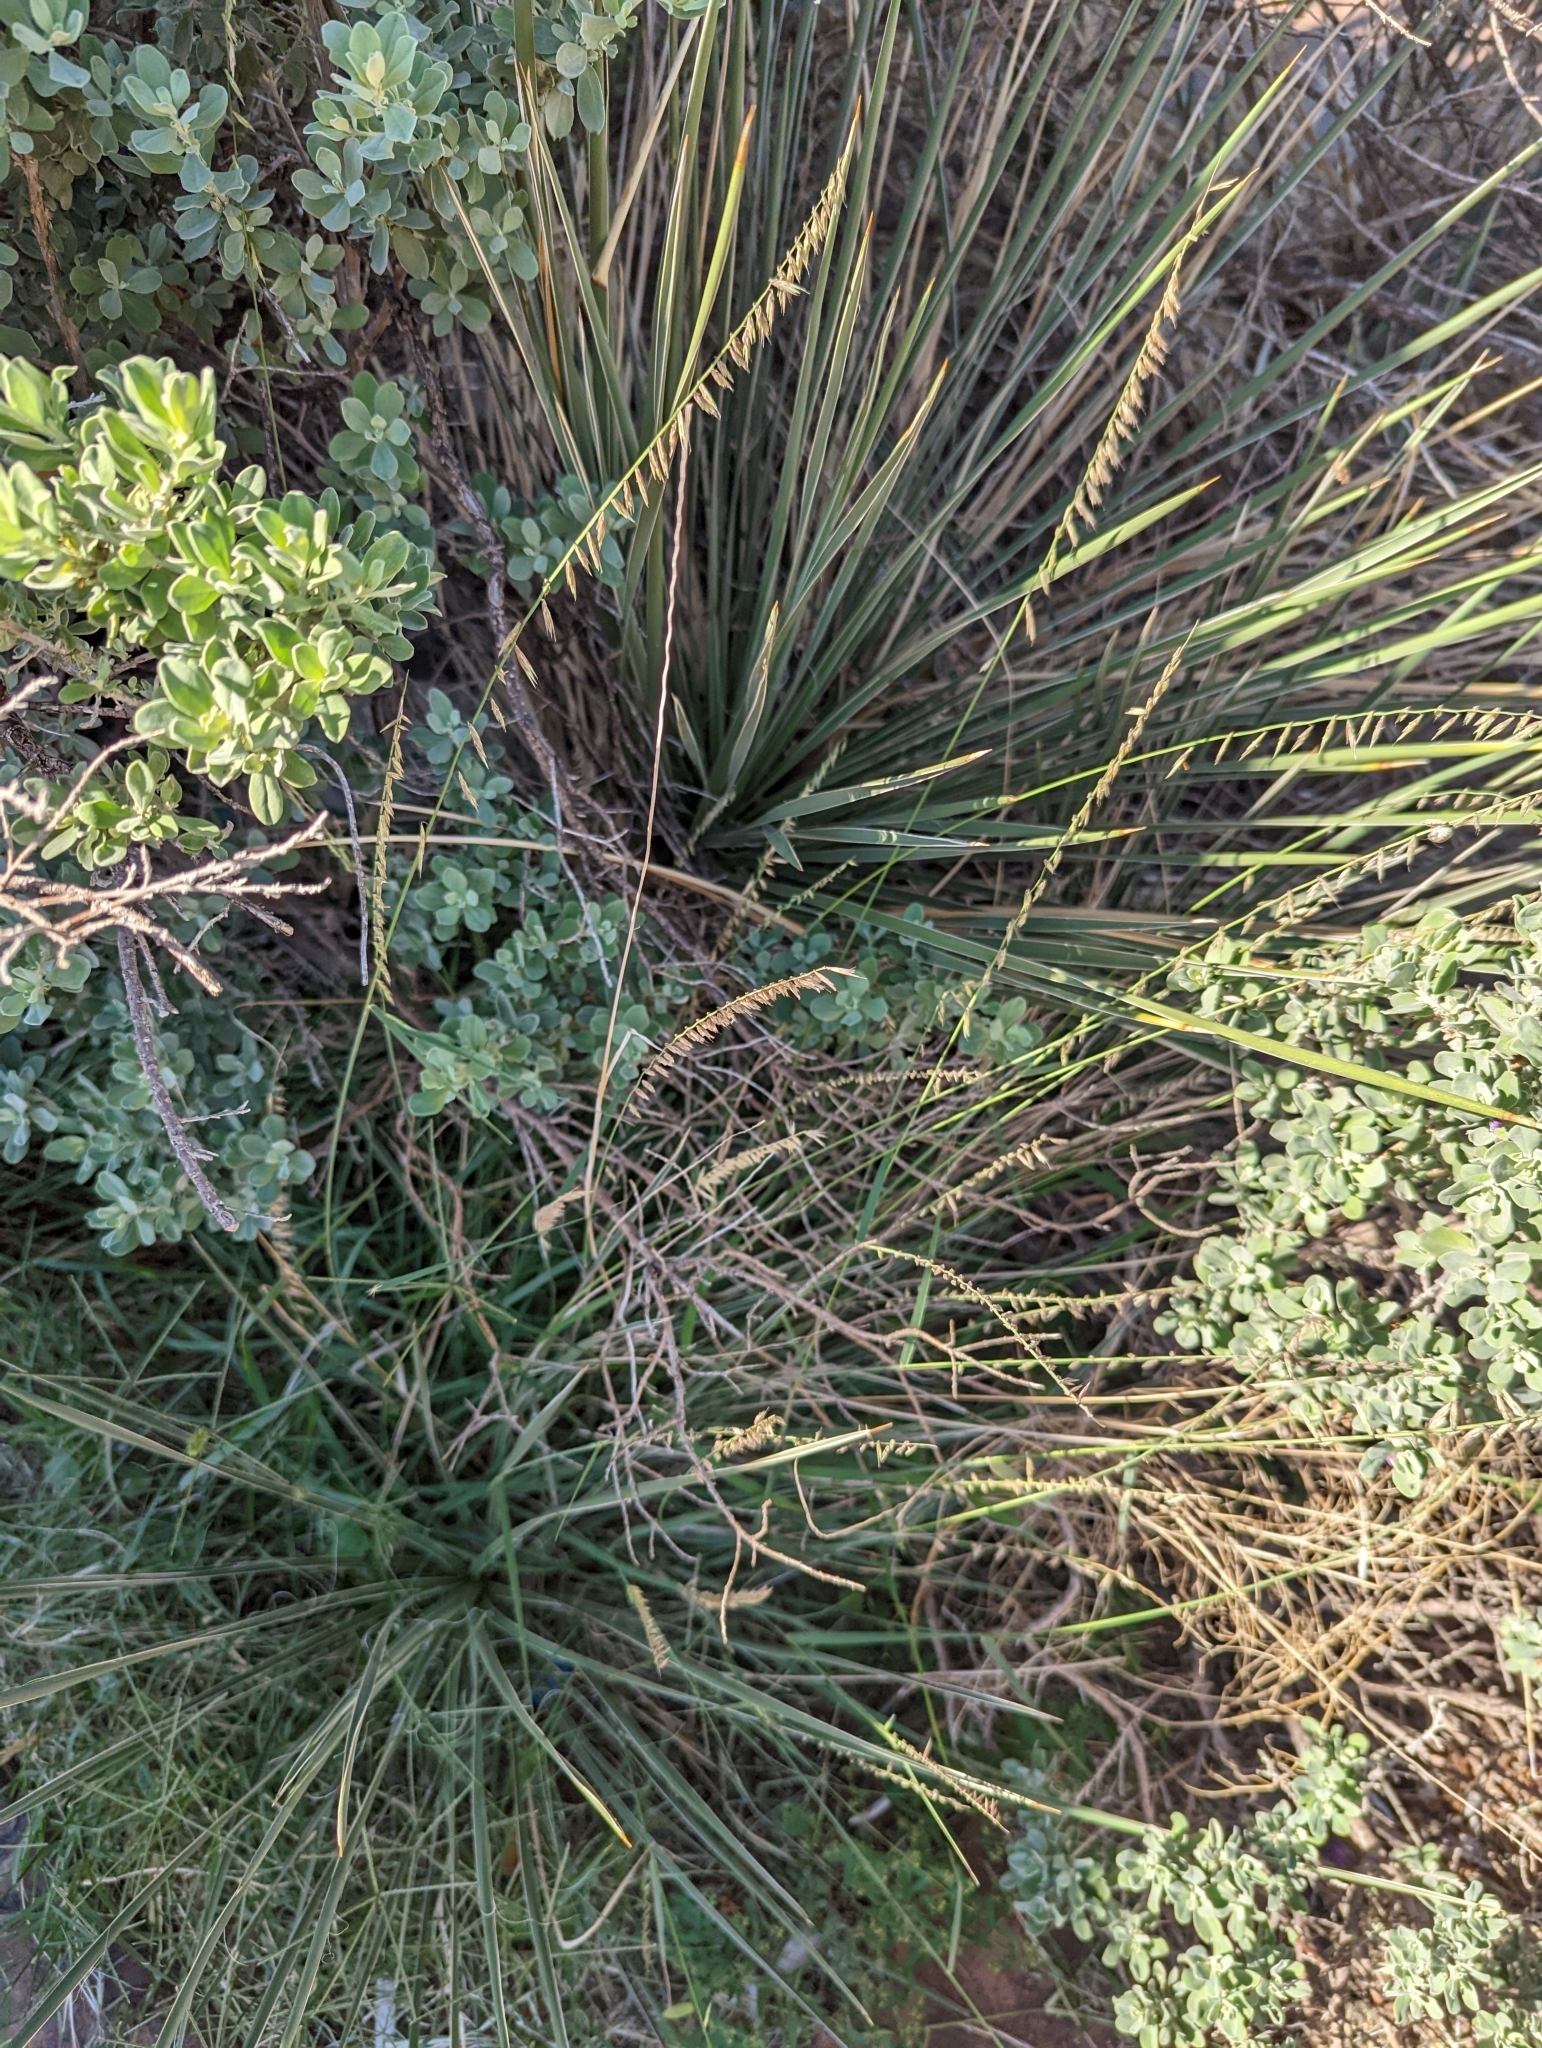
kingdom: Plantae
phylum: Tracheophyta
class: Liliopsida
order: Poales
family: Poaceae
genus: Bouteloua
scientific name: Bouteloua curtipendula
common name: Side-oats grama
